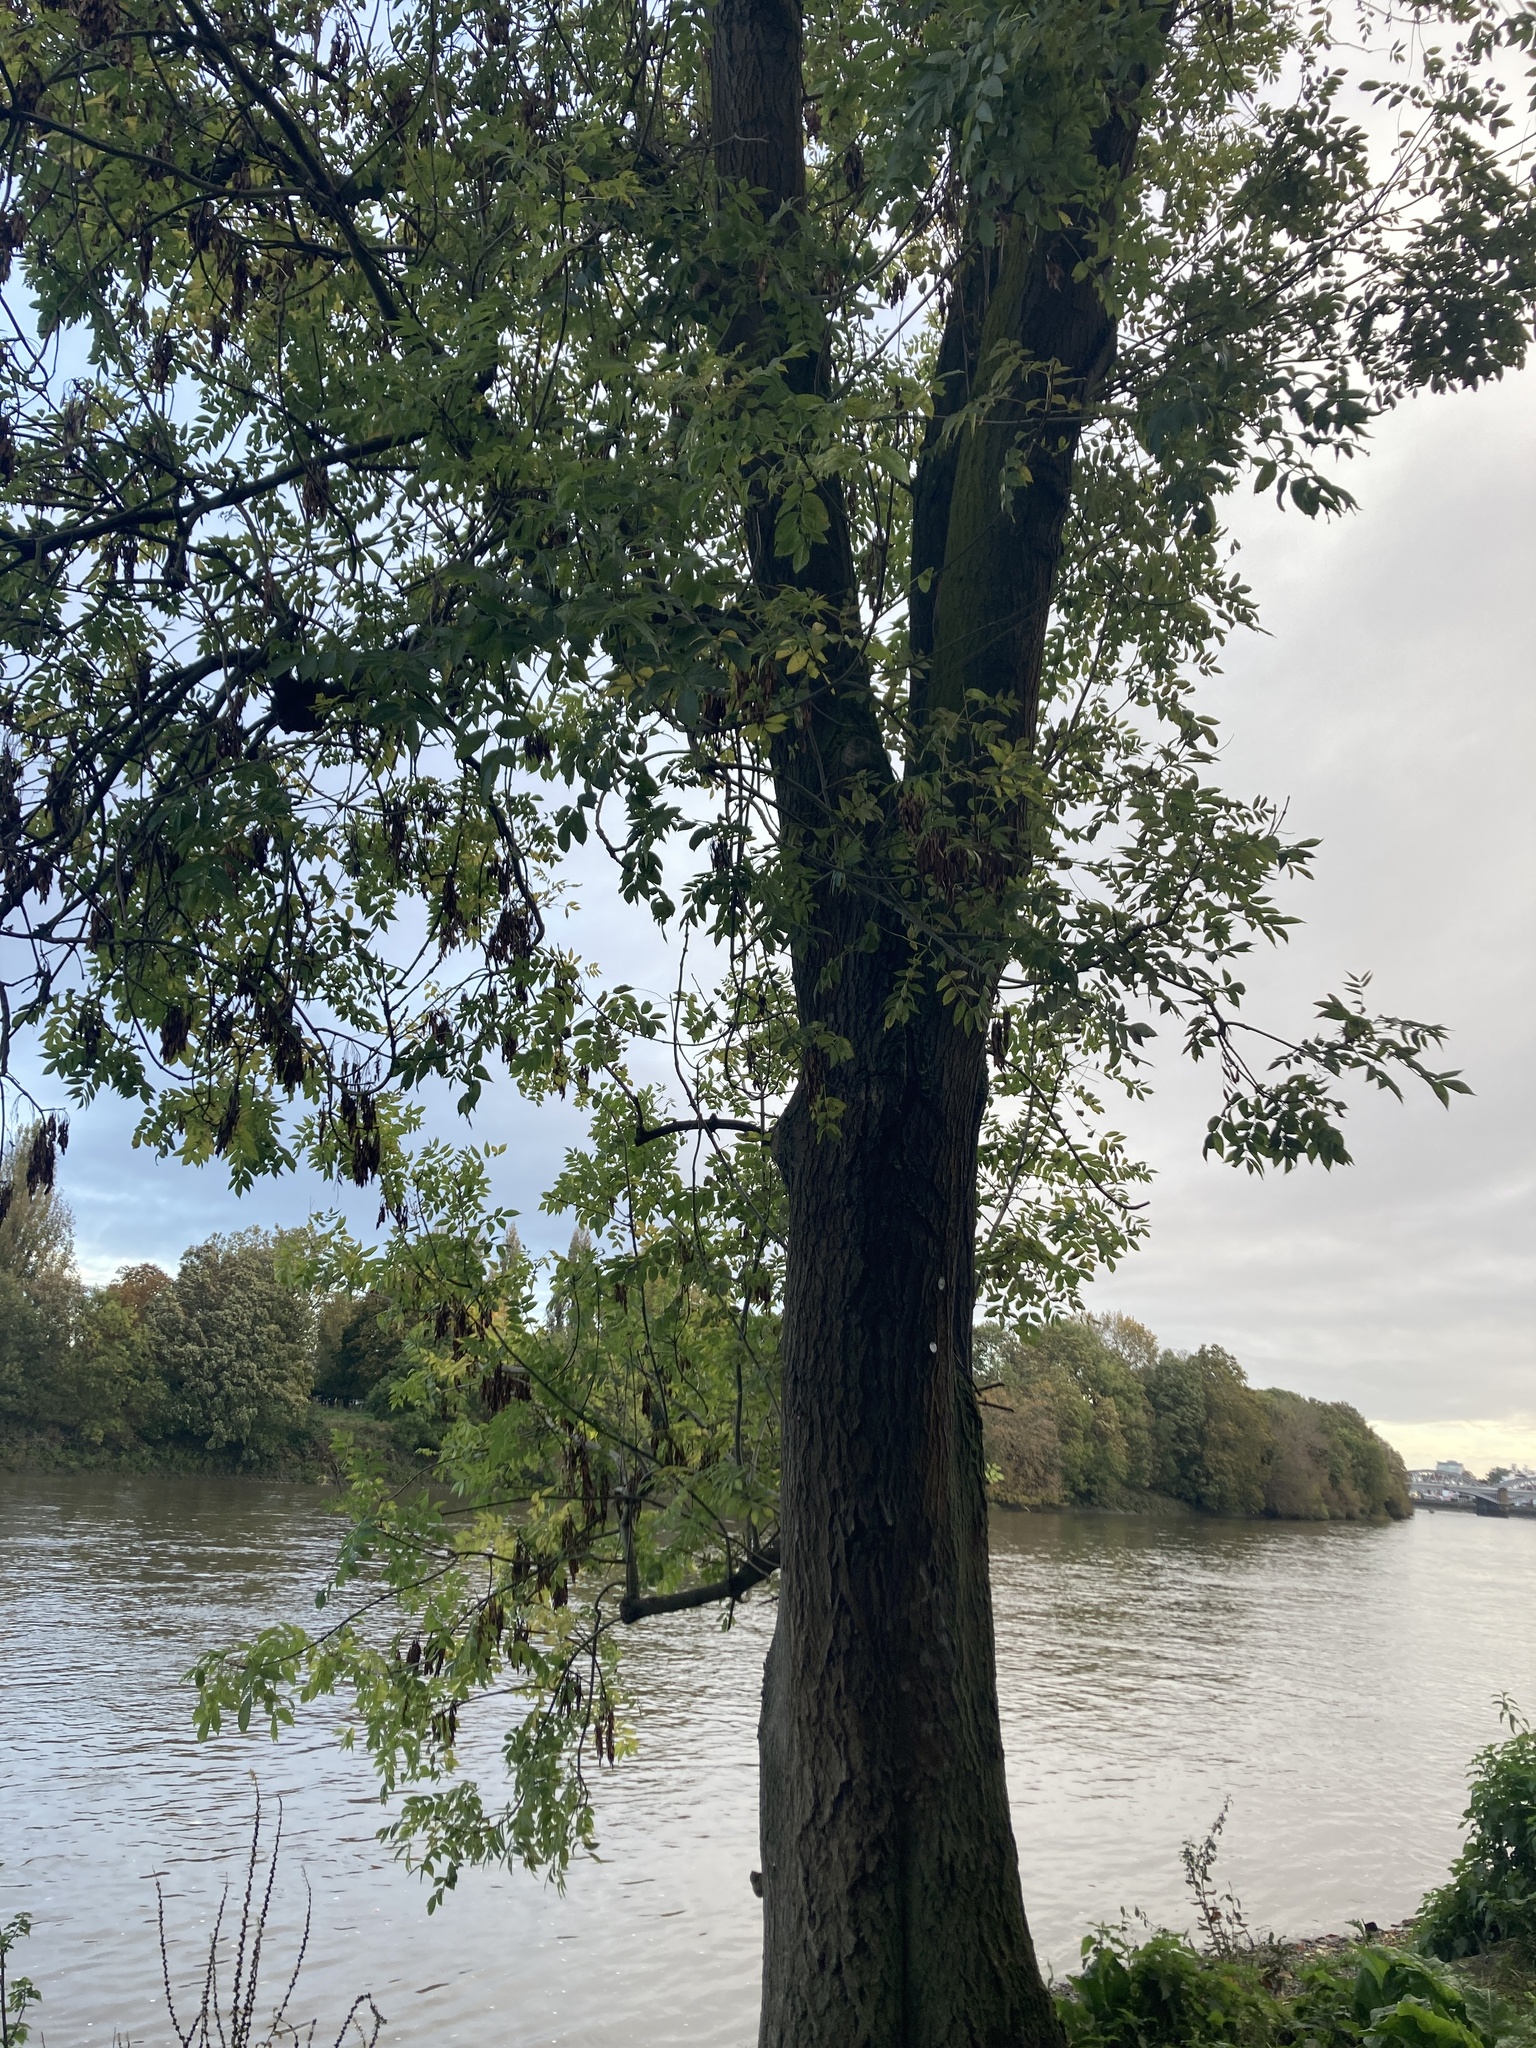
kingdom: Plantae
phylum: Tracheophyta
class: Magnoliopsida
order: Lamiales
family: Oleaceae
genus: Fraxinus
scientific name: Fraxinus excelsior
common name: European ash
